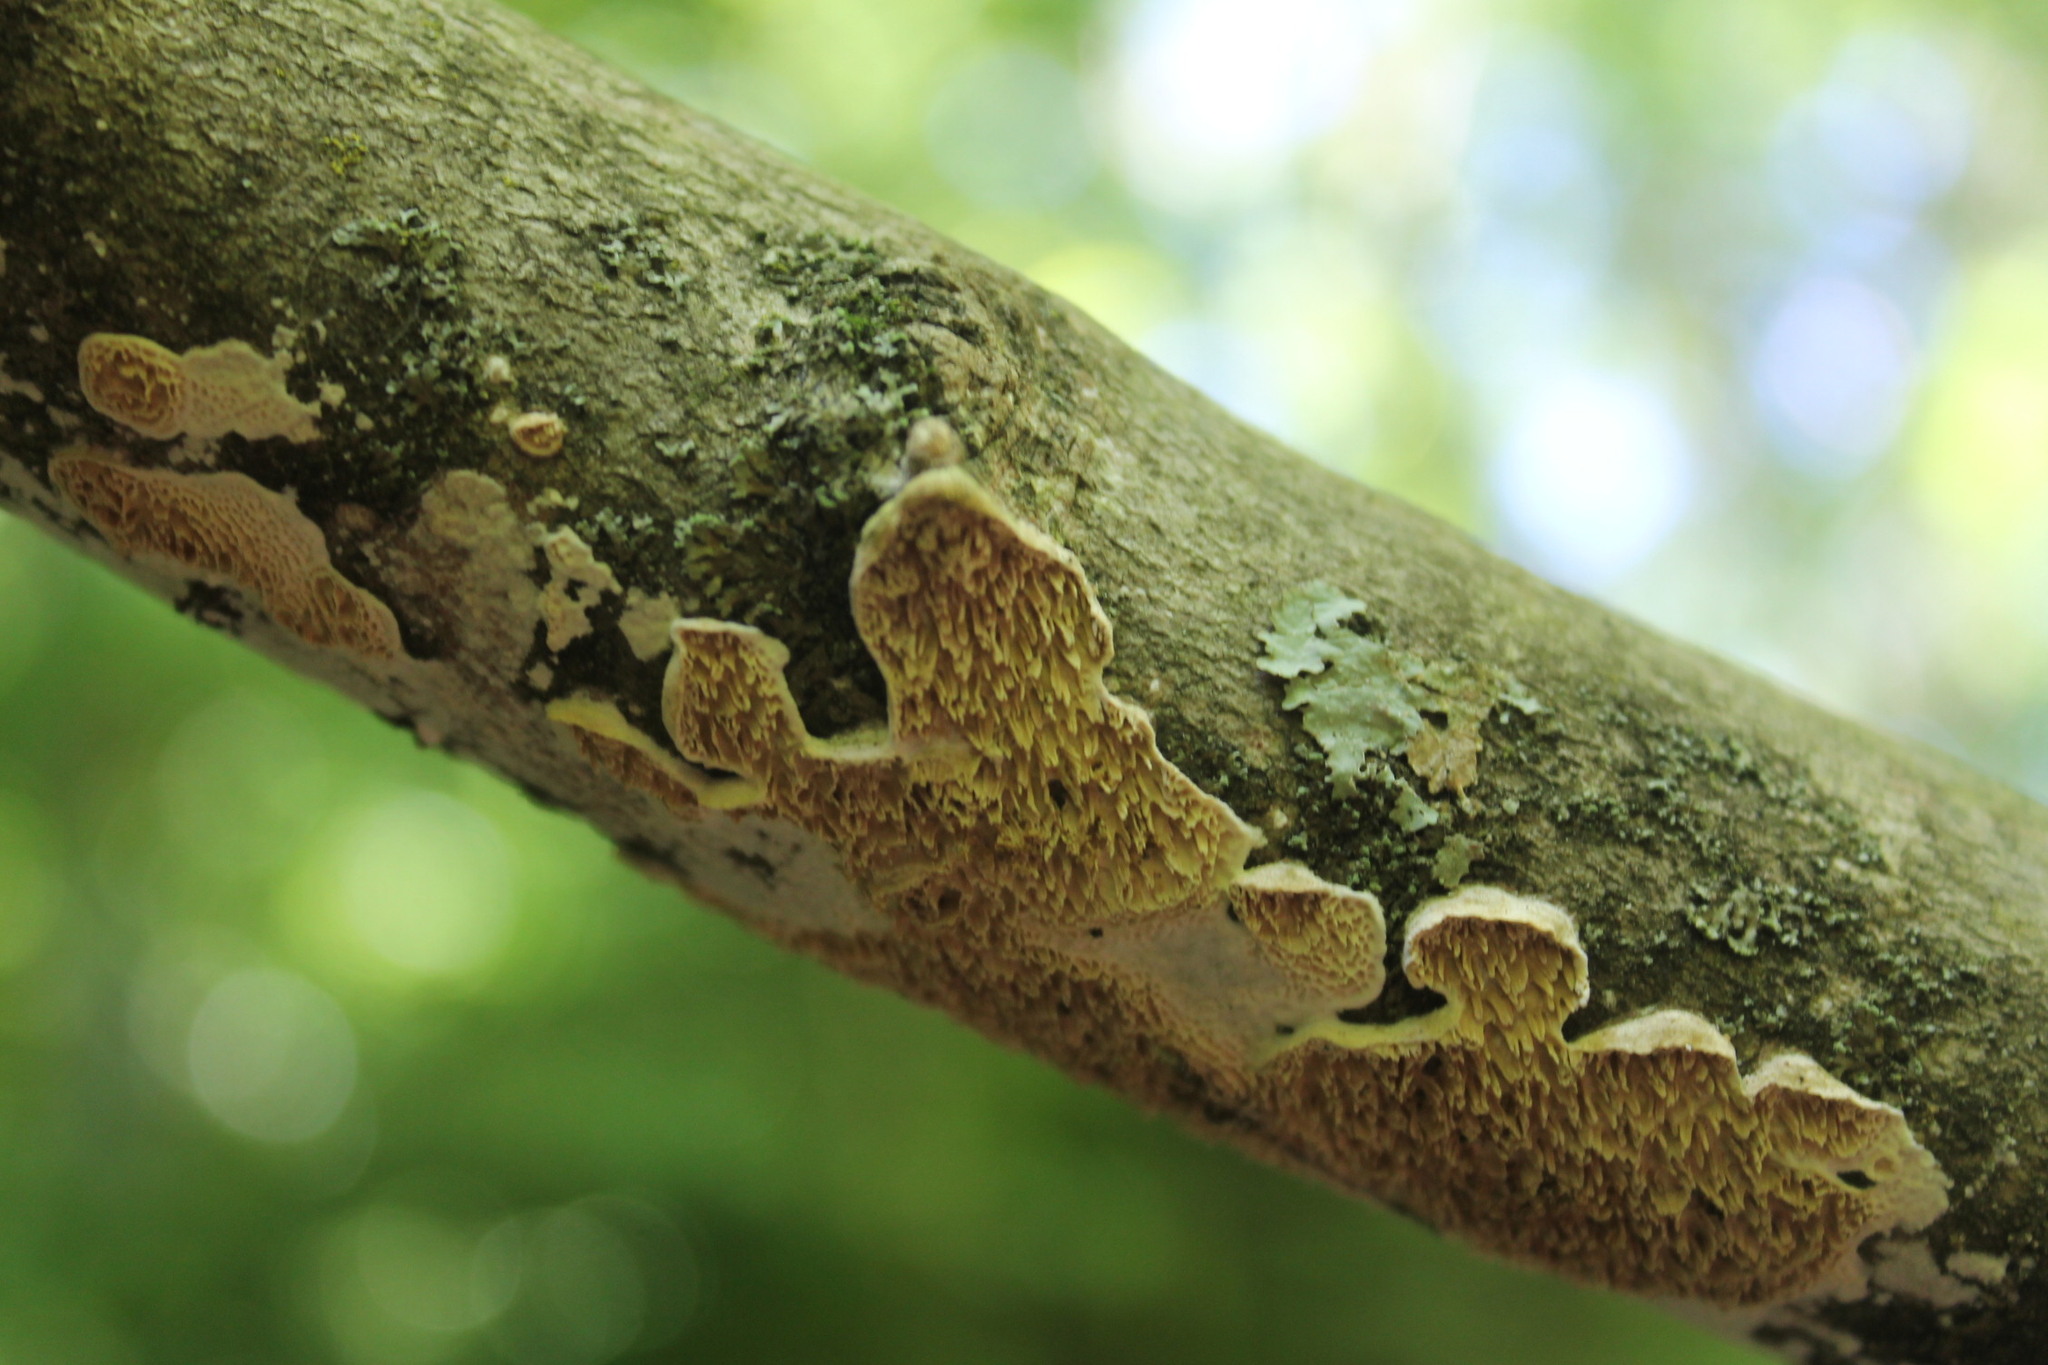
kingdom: Fungi
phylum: Basidiomycota
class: Agaricomycetes
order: Polyporales
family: Irpicaceae
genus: Irpex
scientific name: Irpex lacteus
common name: Milk-white toothed polypore
